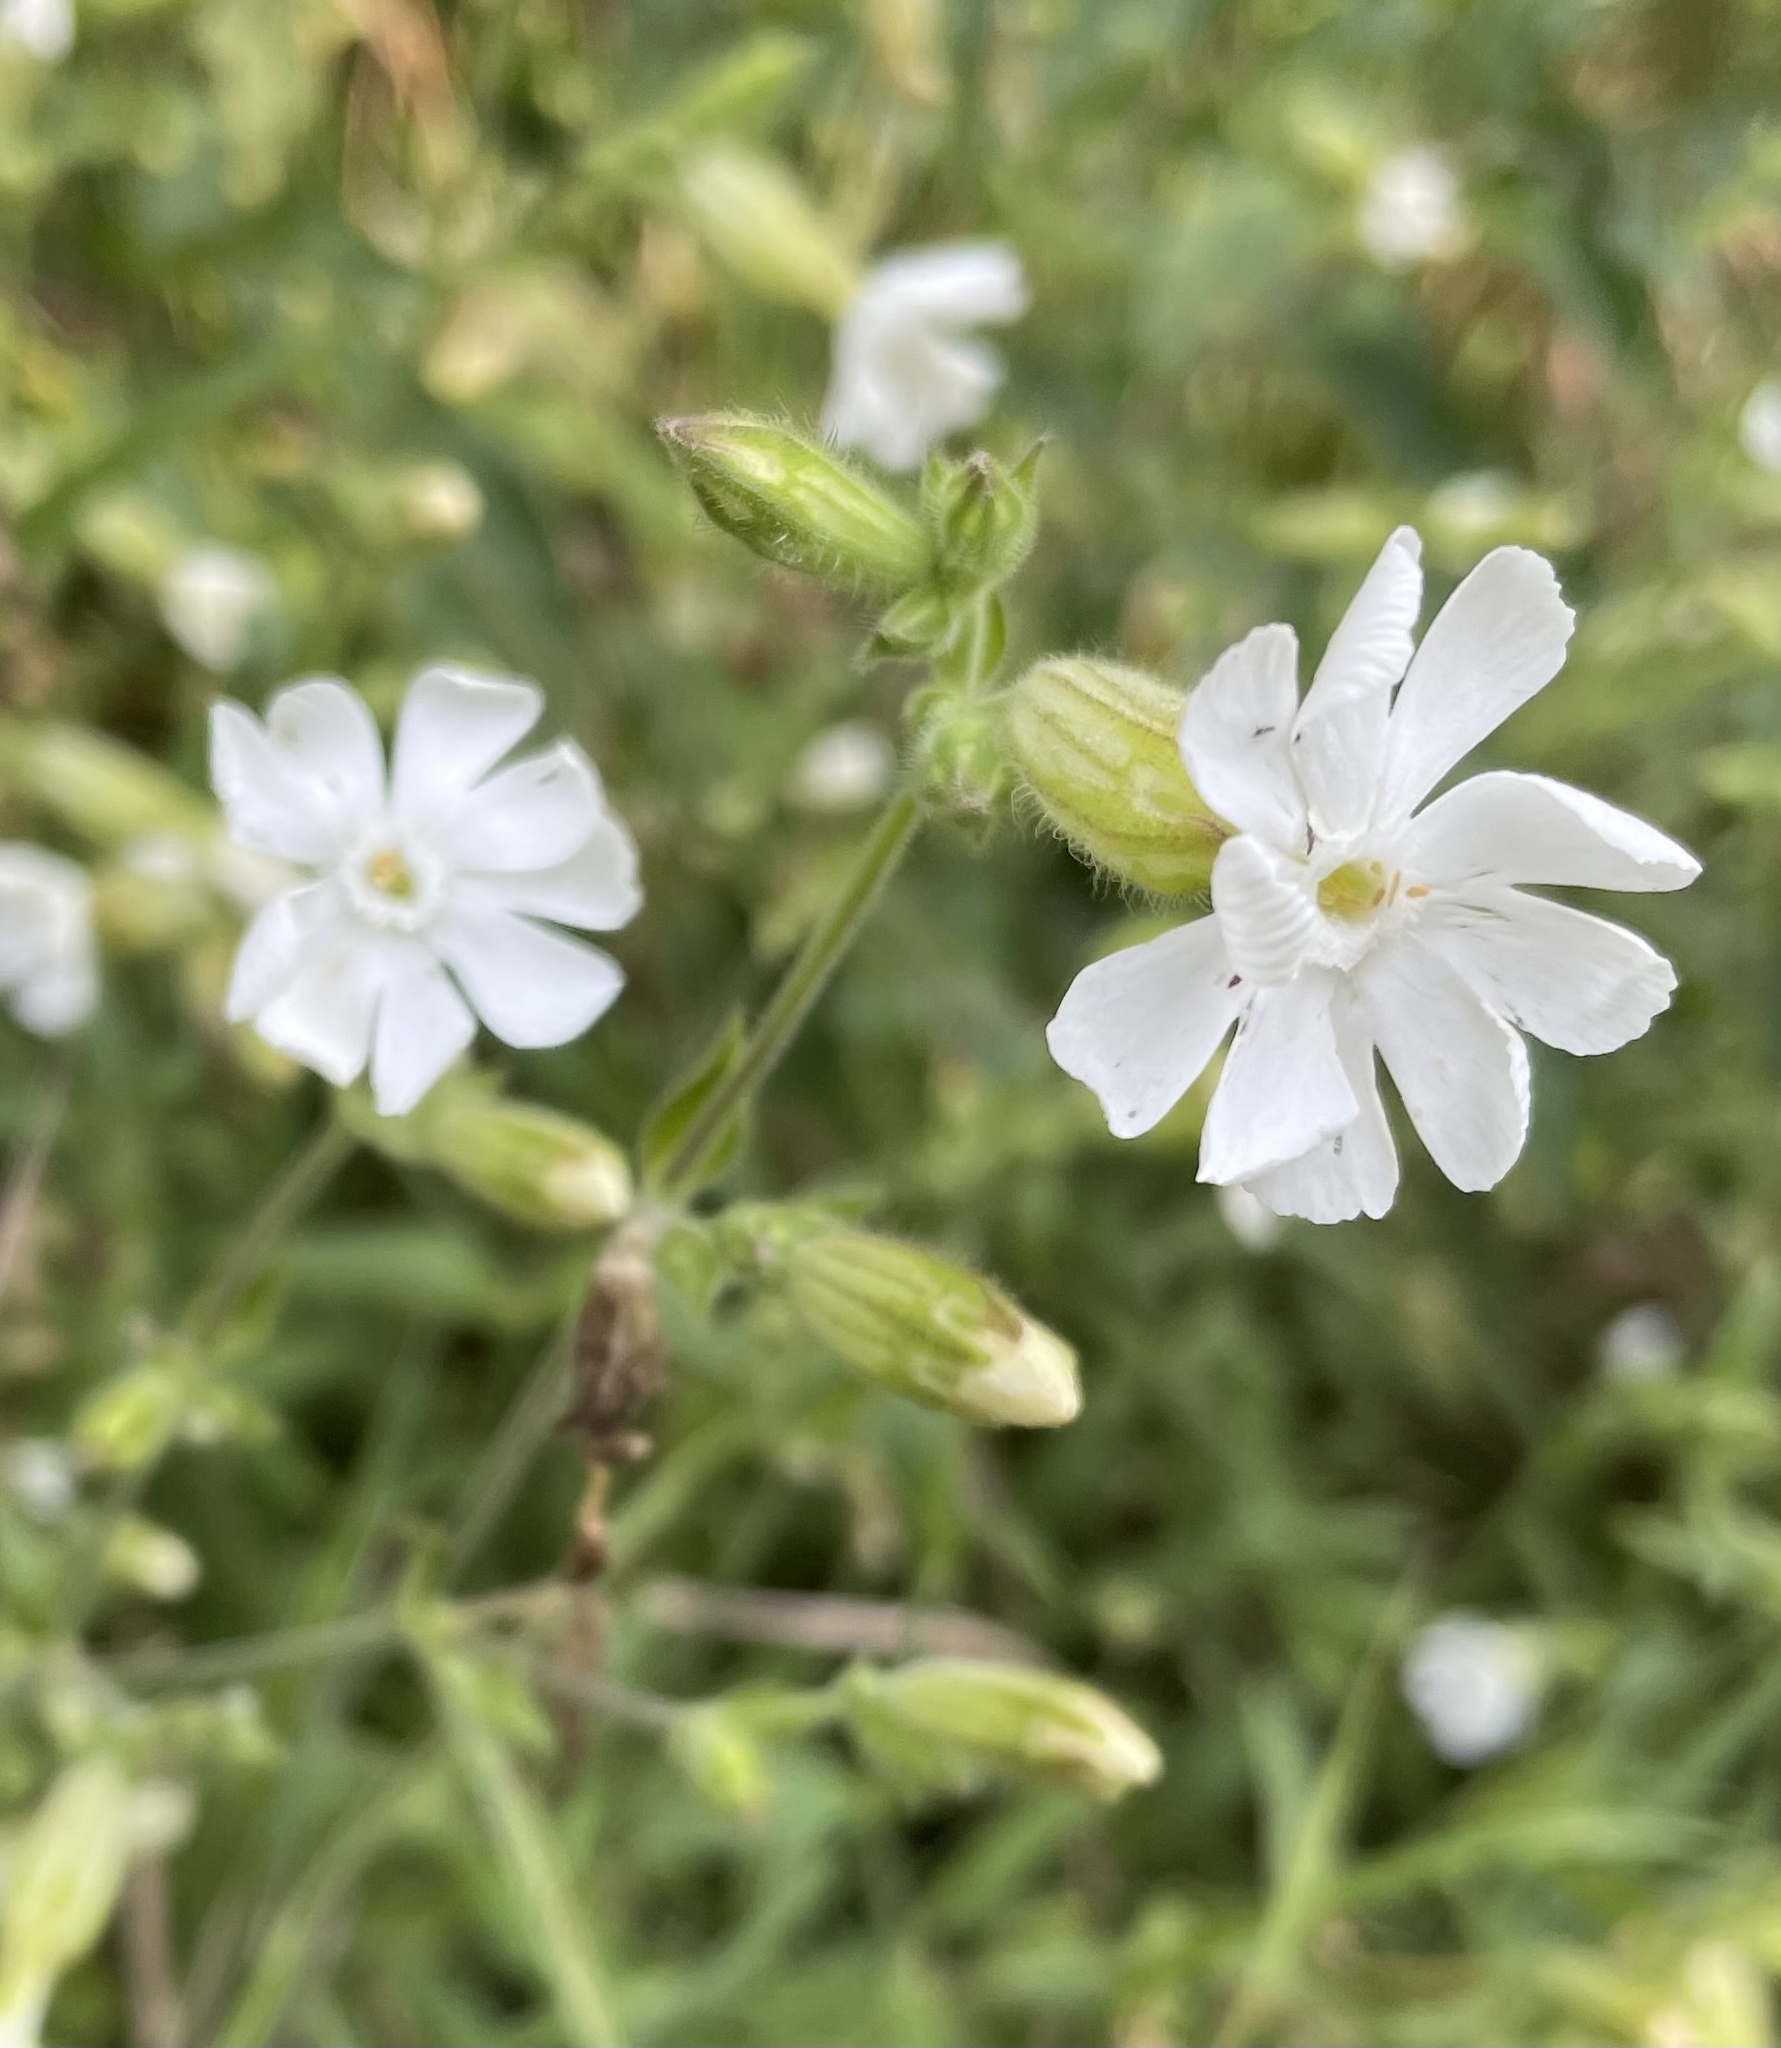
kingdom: Plantae
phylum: Tracheophyta
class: Magnoliopsida
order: Caryophyllales
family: Caryophyllaceae
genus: Silene
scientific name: Silene latifolia
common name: White campion
